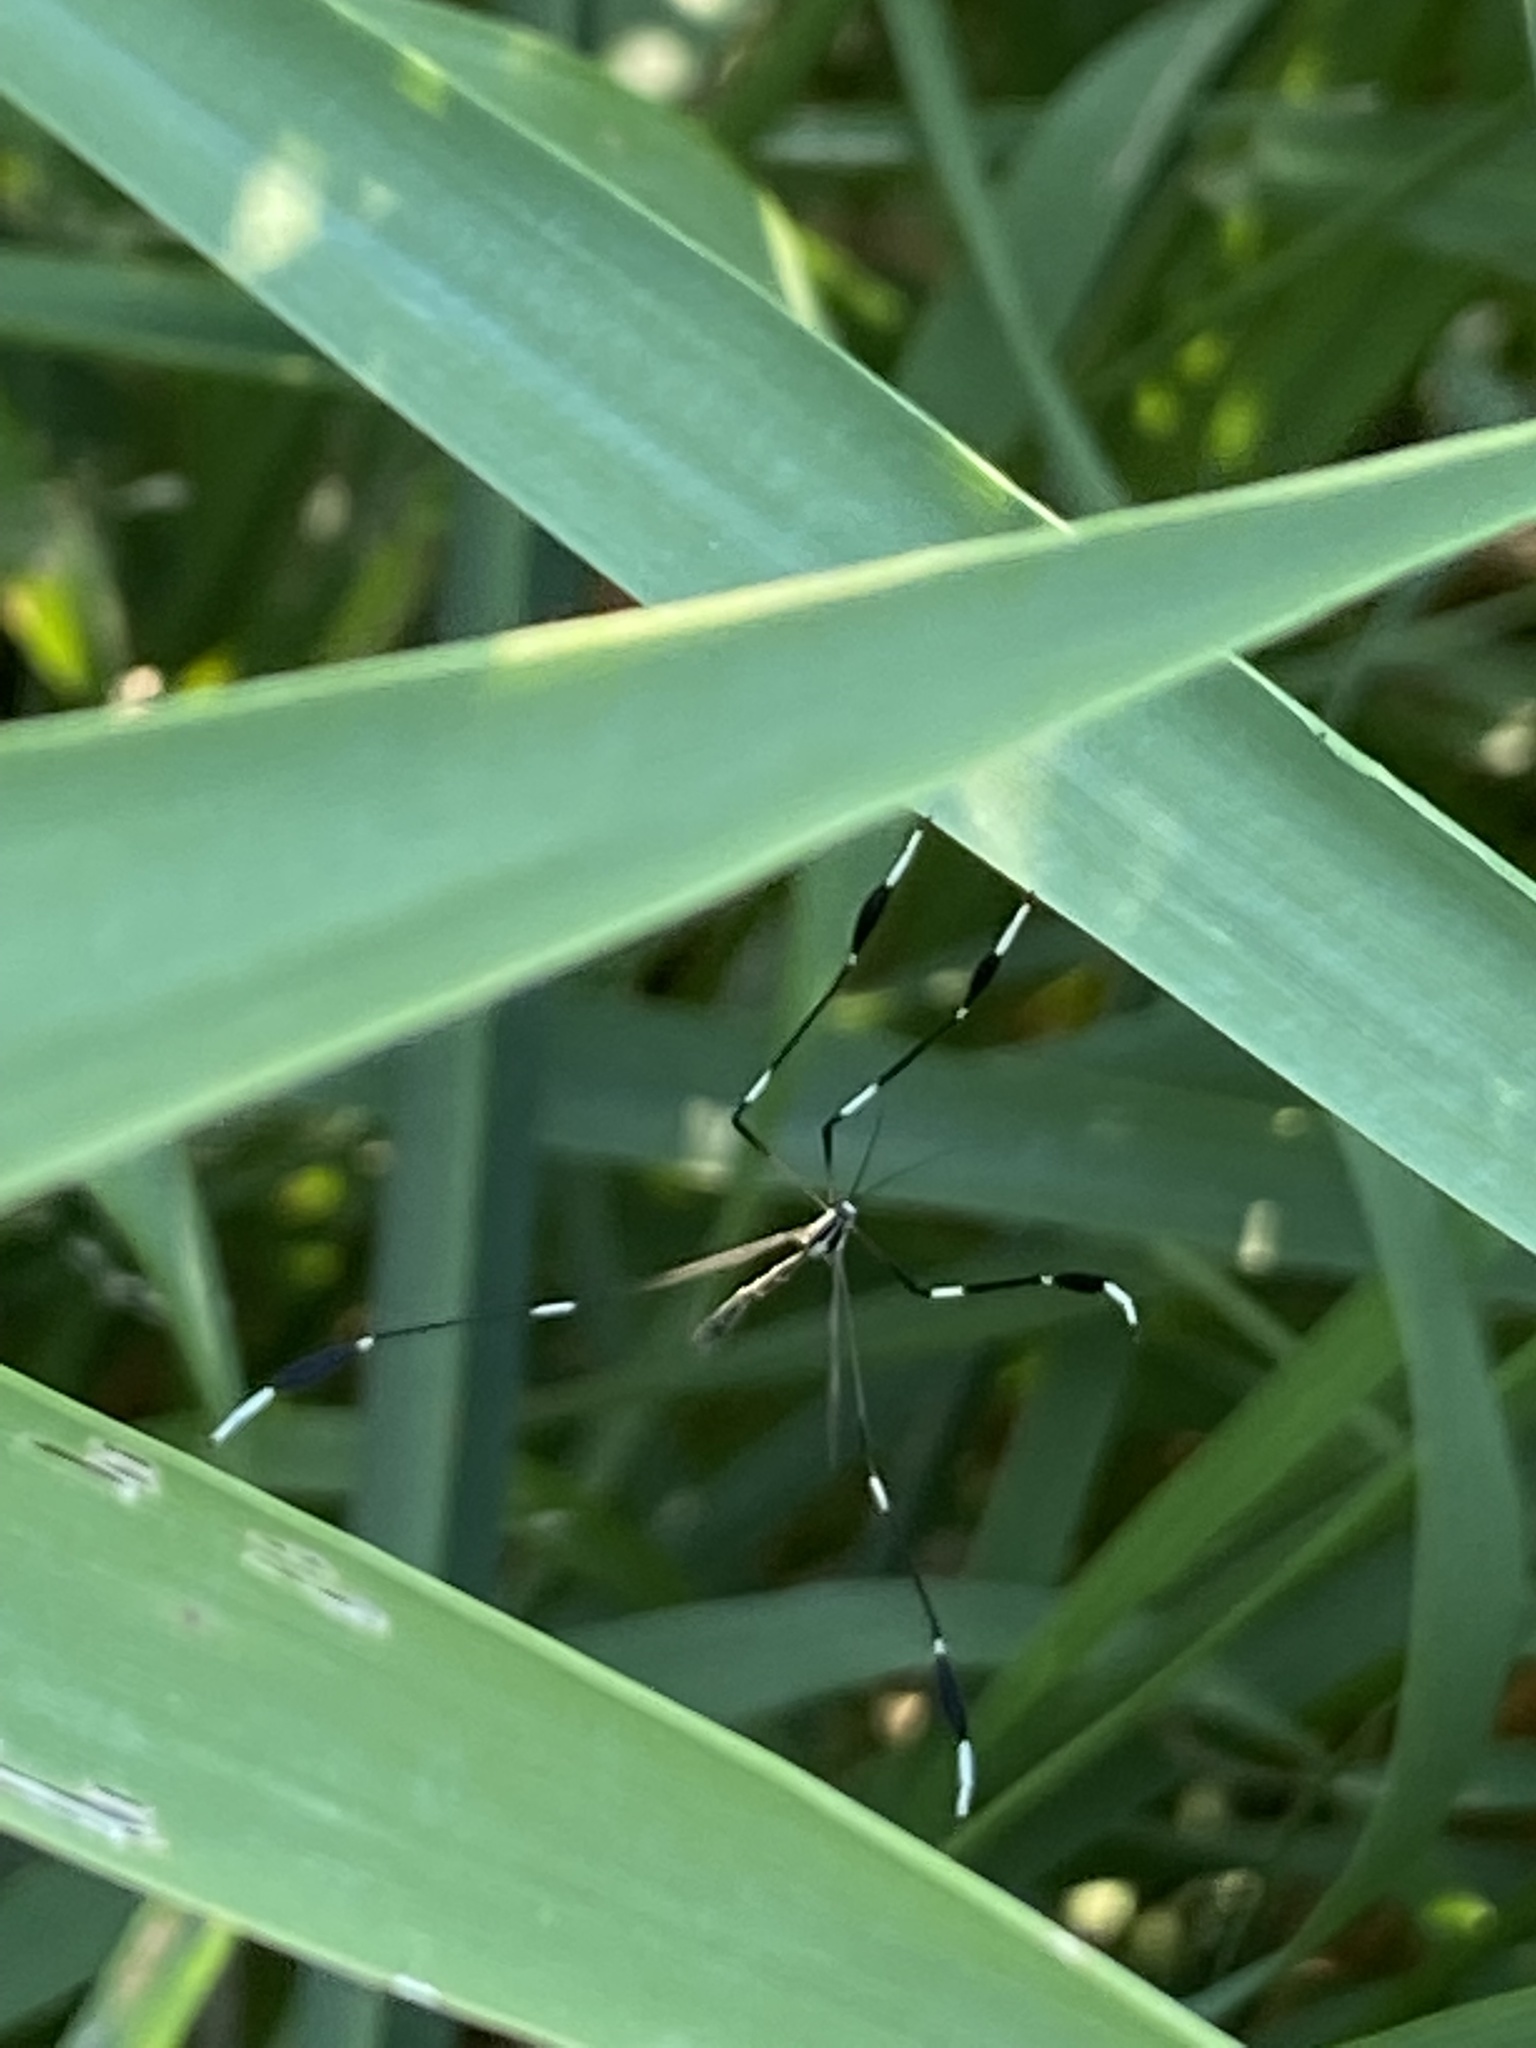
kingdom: Animalia
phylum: Arthropoda
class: Insecta
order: Diptera
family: Ptychopteridae
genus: Bittacomorpha
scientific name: Bittacomorpha clavipes
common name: Eastern phantom crane fly
